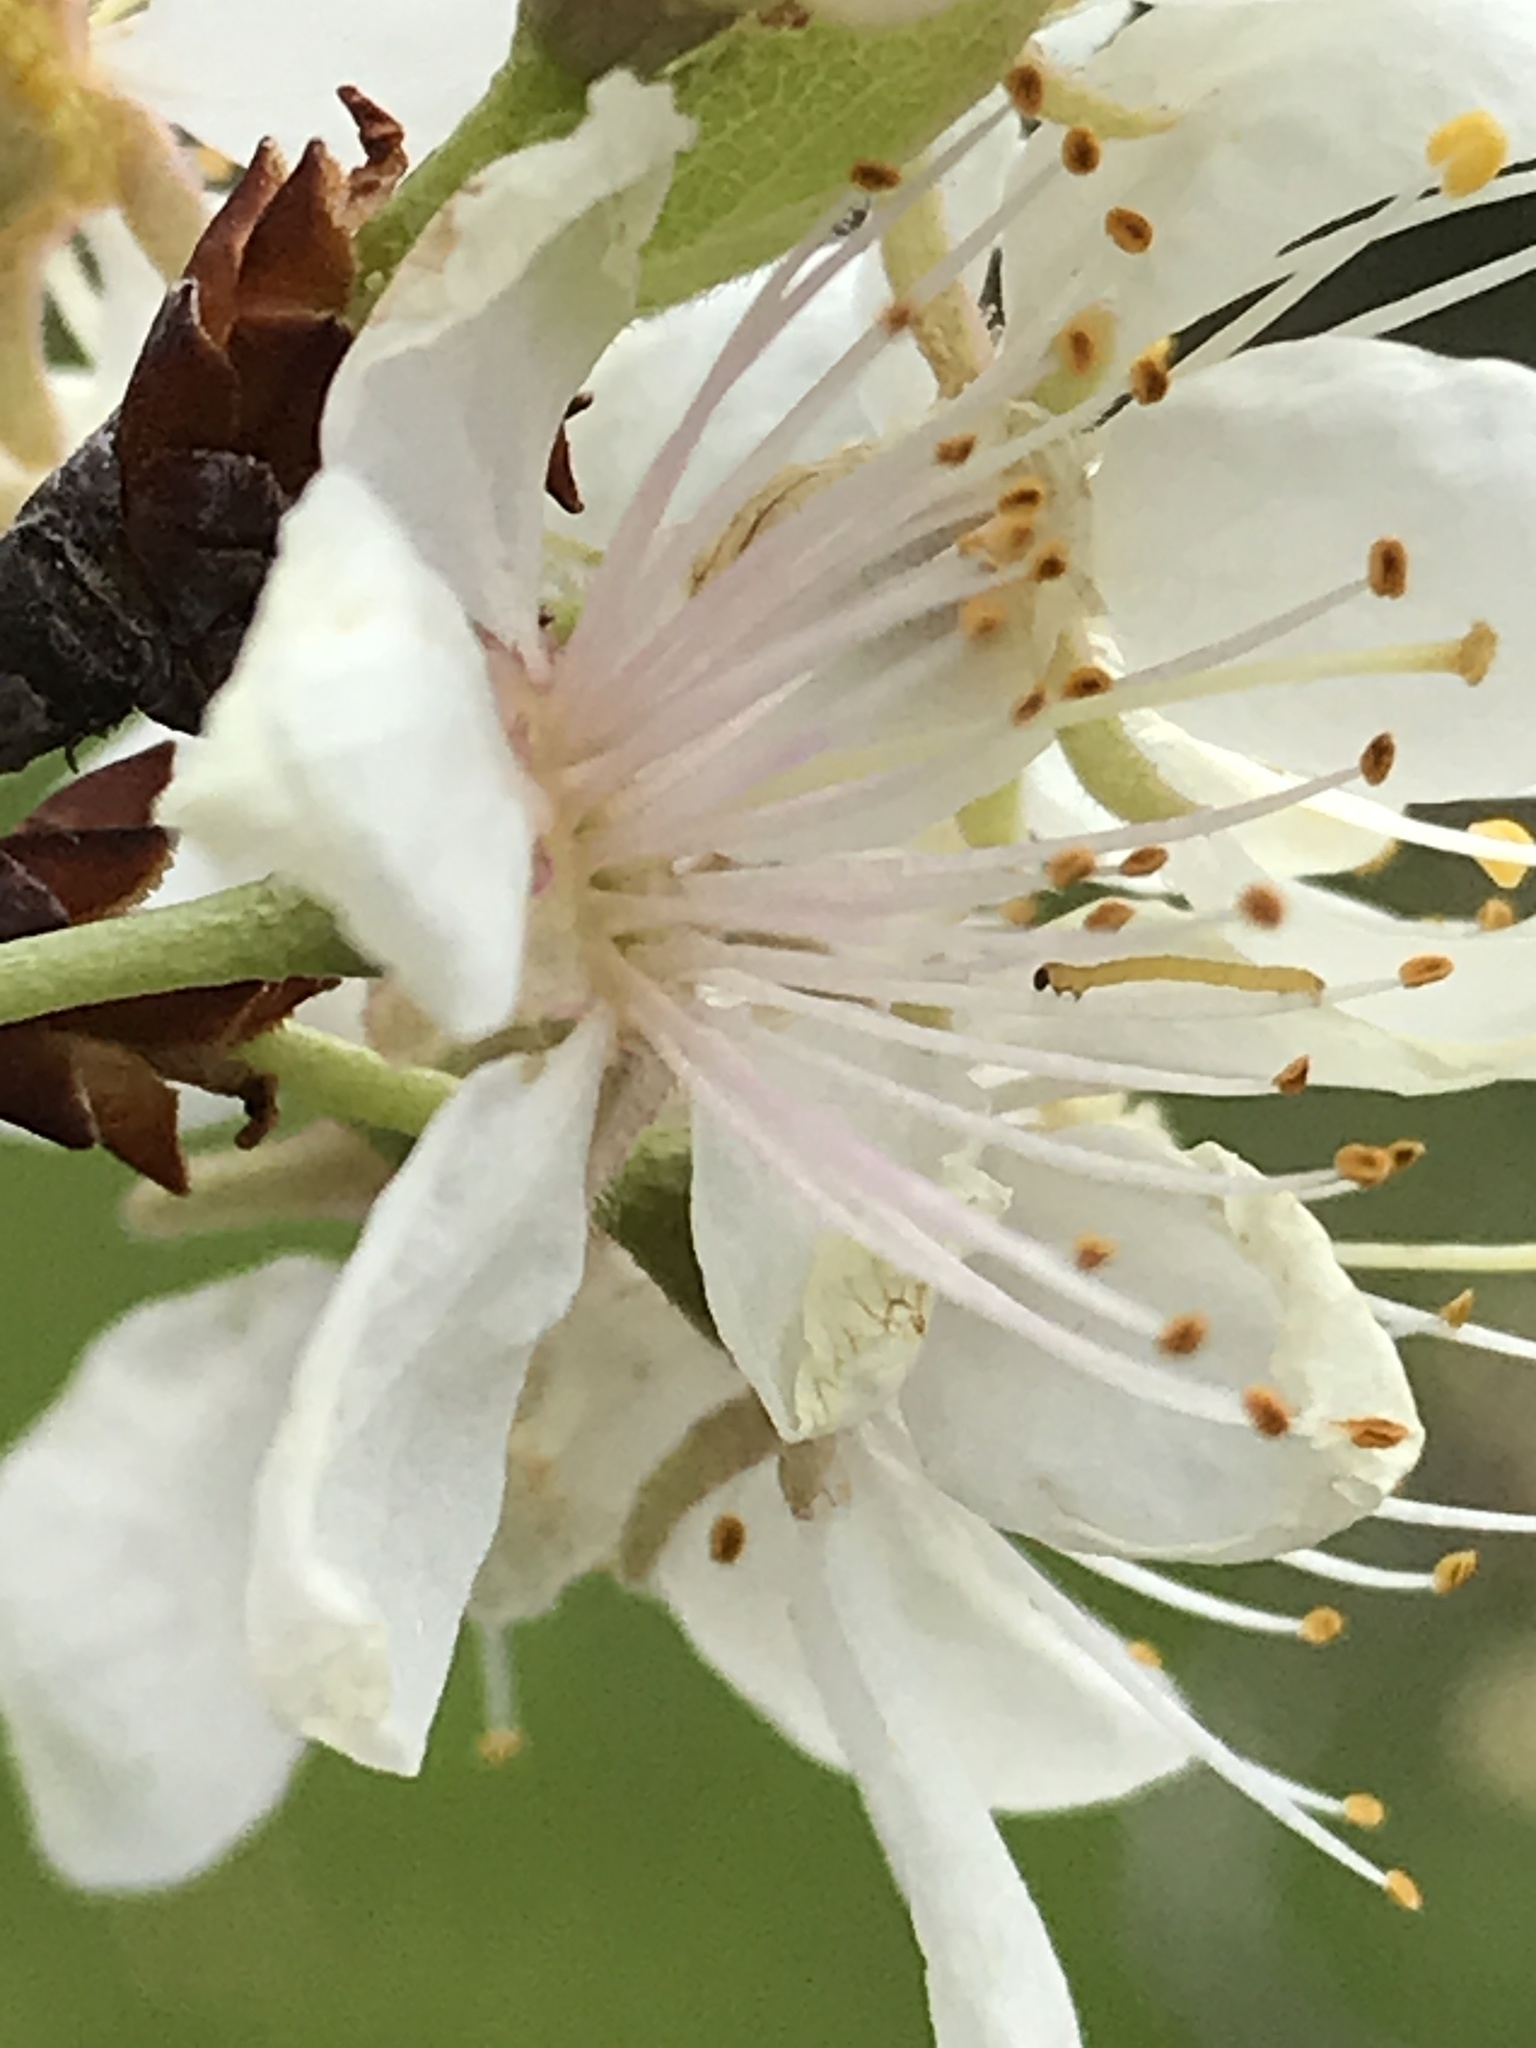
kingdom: Plantae
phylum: Tracheophyta
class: Magnoliopsida
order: Rosales
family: Rosaceae
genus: Prunus
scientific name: Prunus mexicana
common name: Mexican plum
